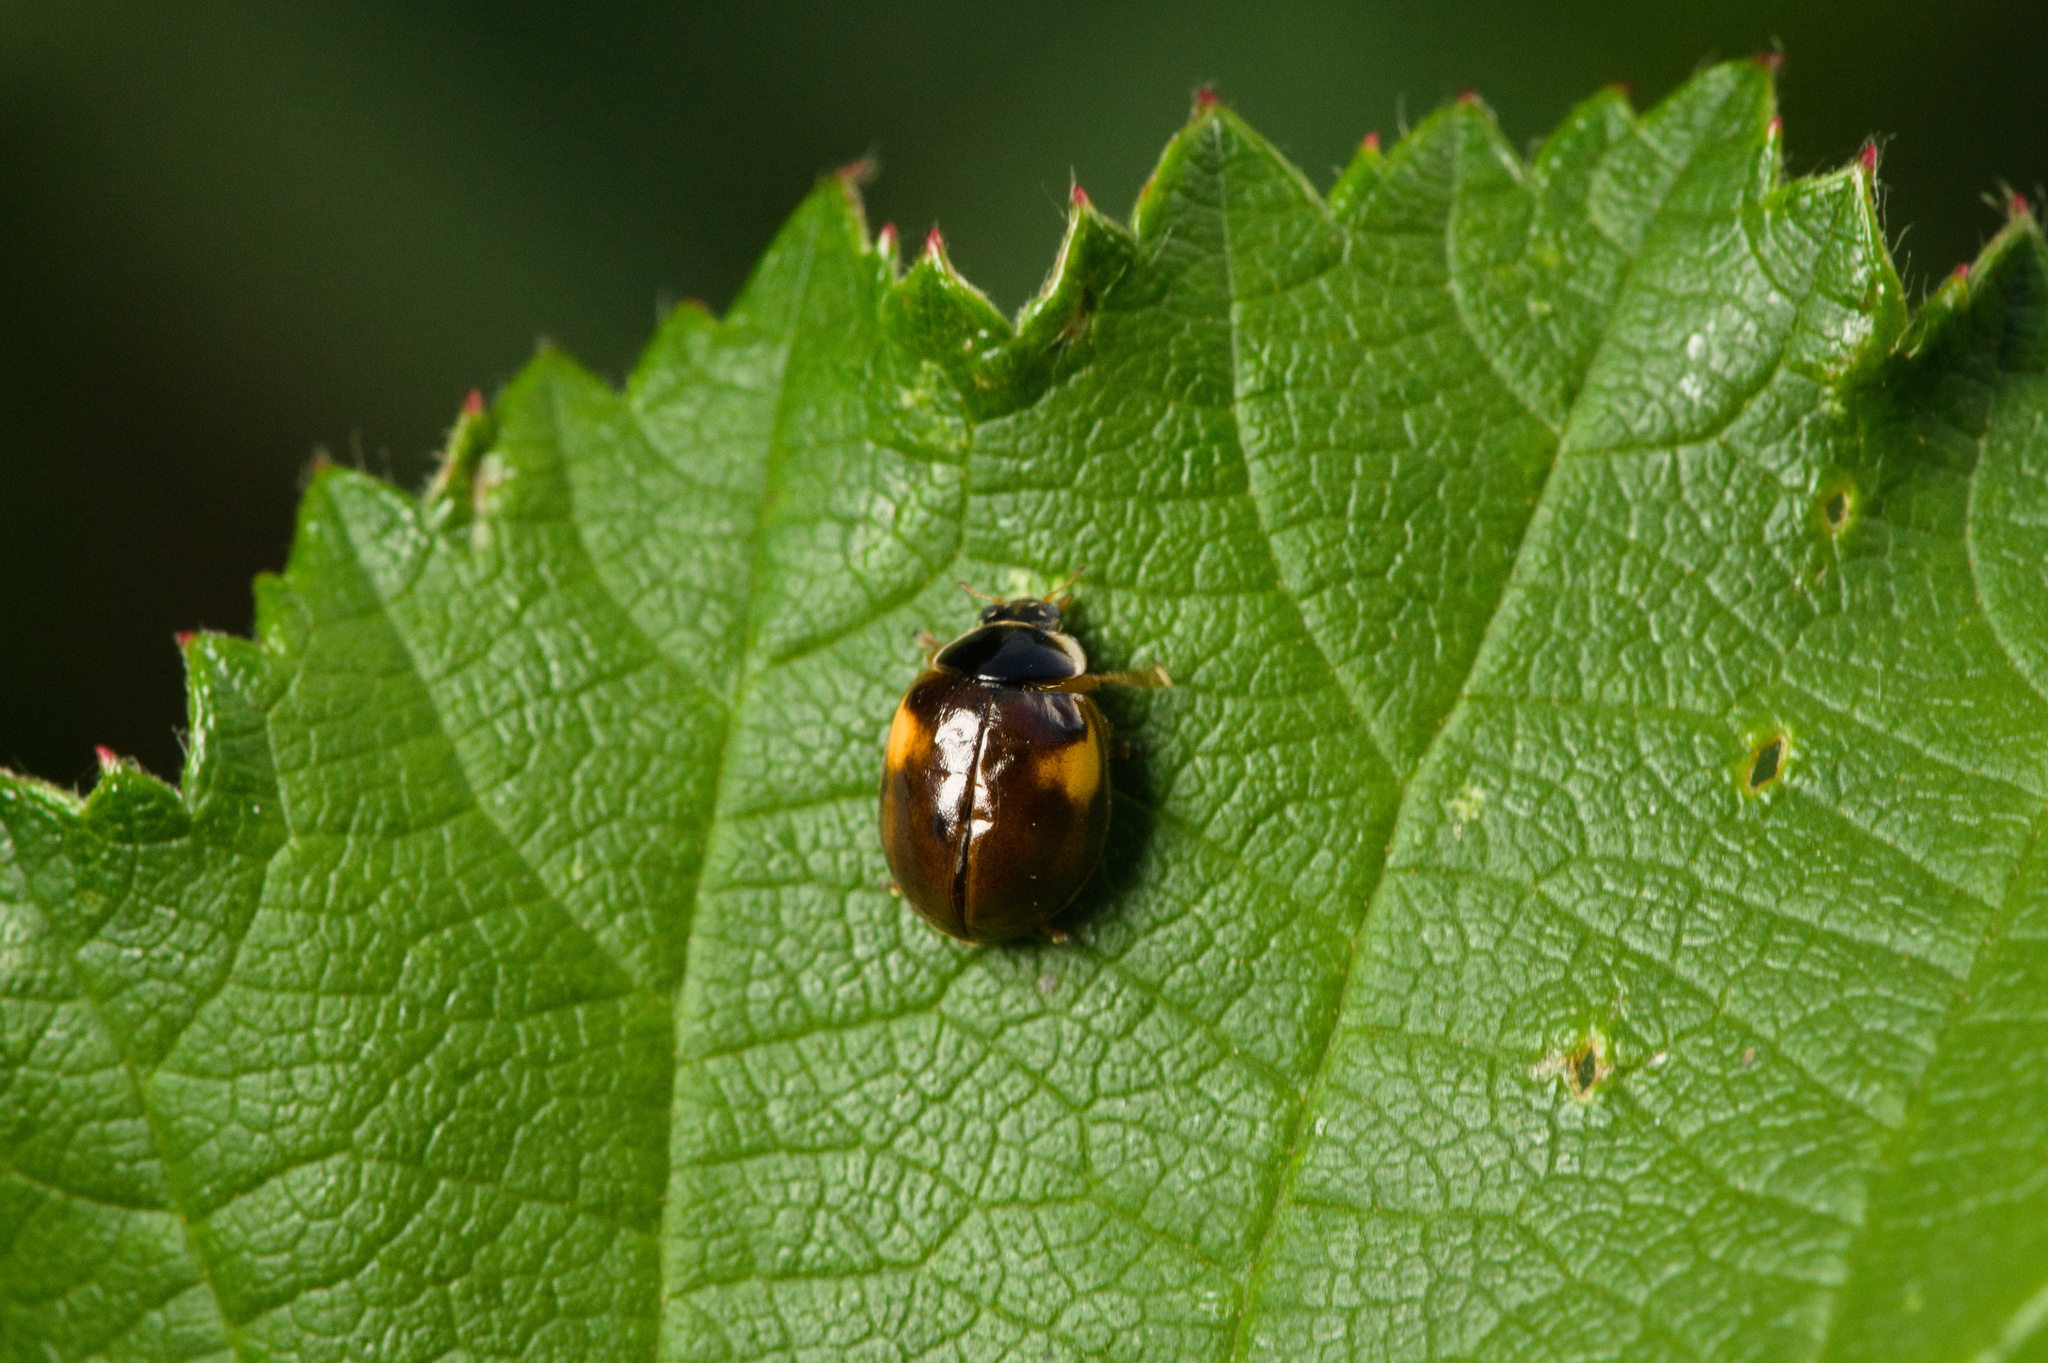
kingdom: Animalia
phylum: Arthropoda
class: Insecta
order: Coleoptera
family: Coccinellidae
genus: Adalia
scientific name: Adalia decempunctata
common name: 10-spot ladybird
